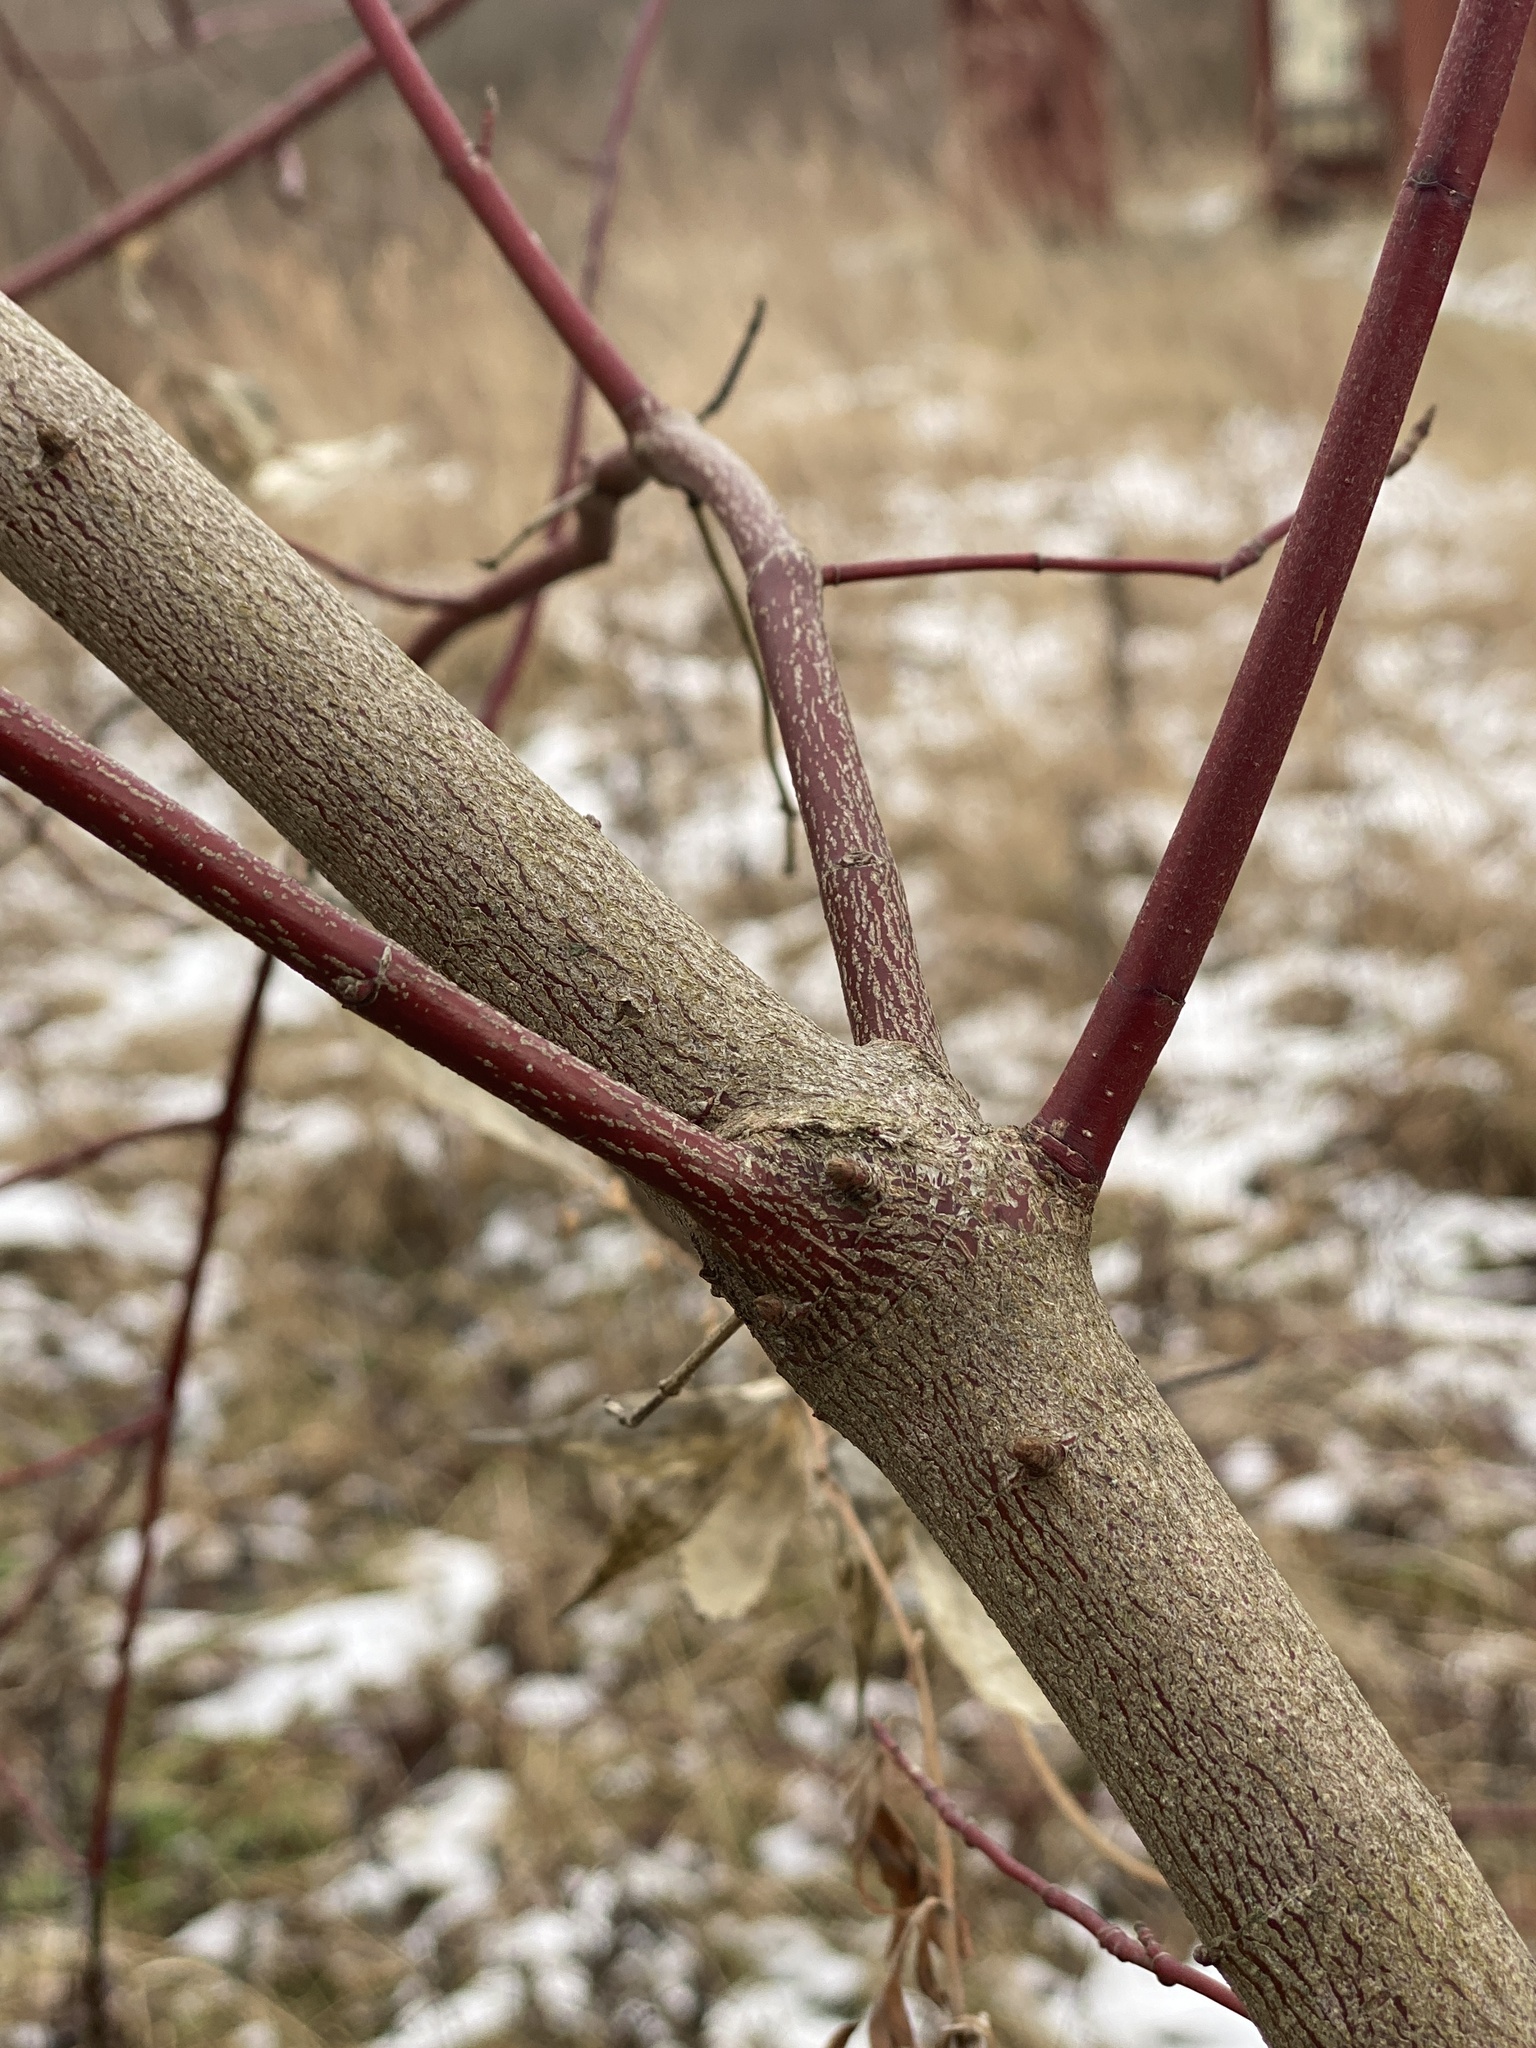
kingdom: Plantae
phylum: Tracheophyta
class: Magnoliopsida
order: Cornales
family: Cornaceae
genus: Cornus
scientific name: Cornus amomum
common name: Silky dogwood
